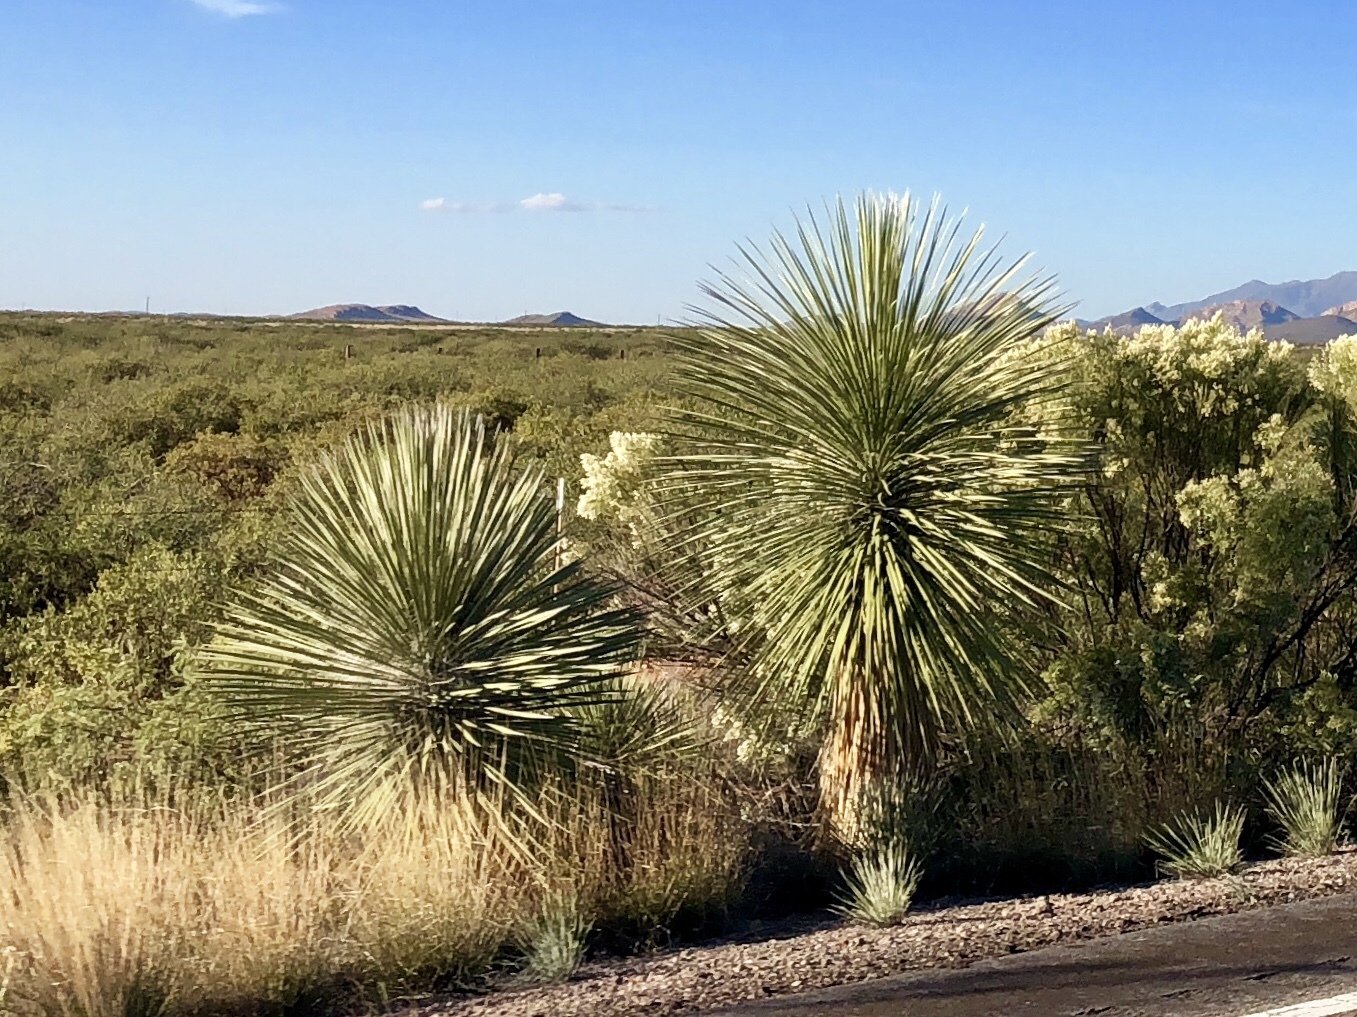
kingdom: Plantae
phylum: Tracheophyta
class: Liliopsida
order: Asparagales
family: Asparagaceae
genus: Yucca
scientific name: Yucca elata
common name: Palmella
